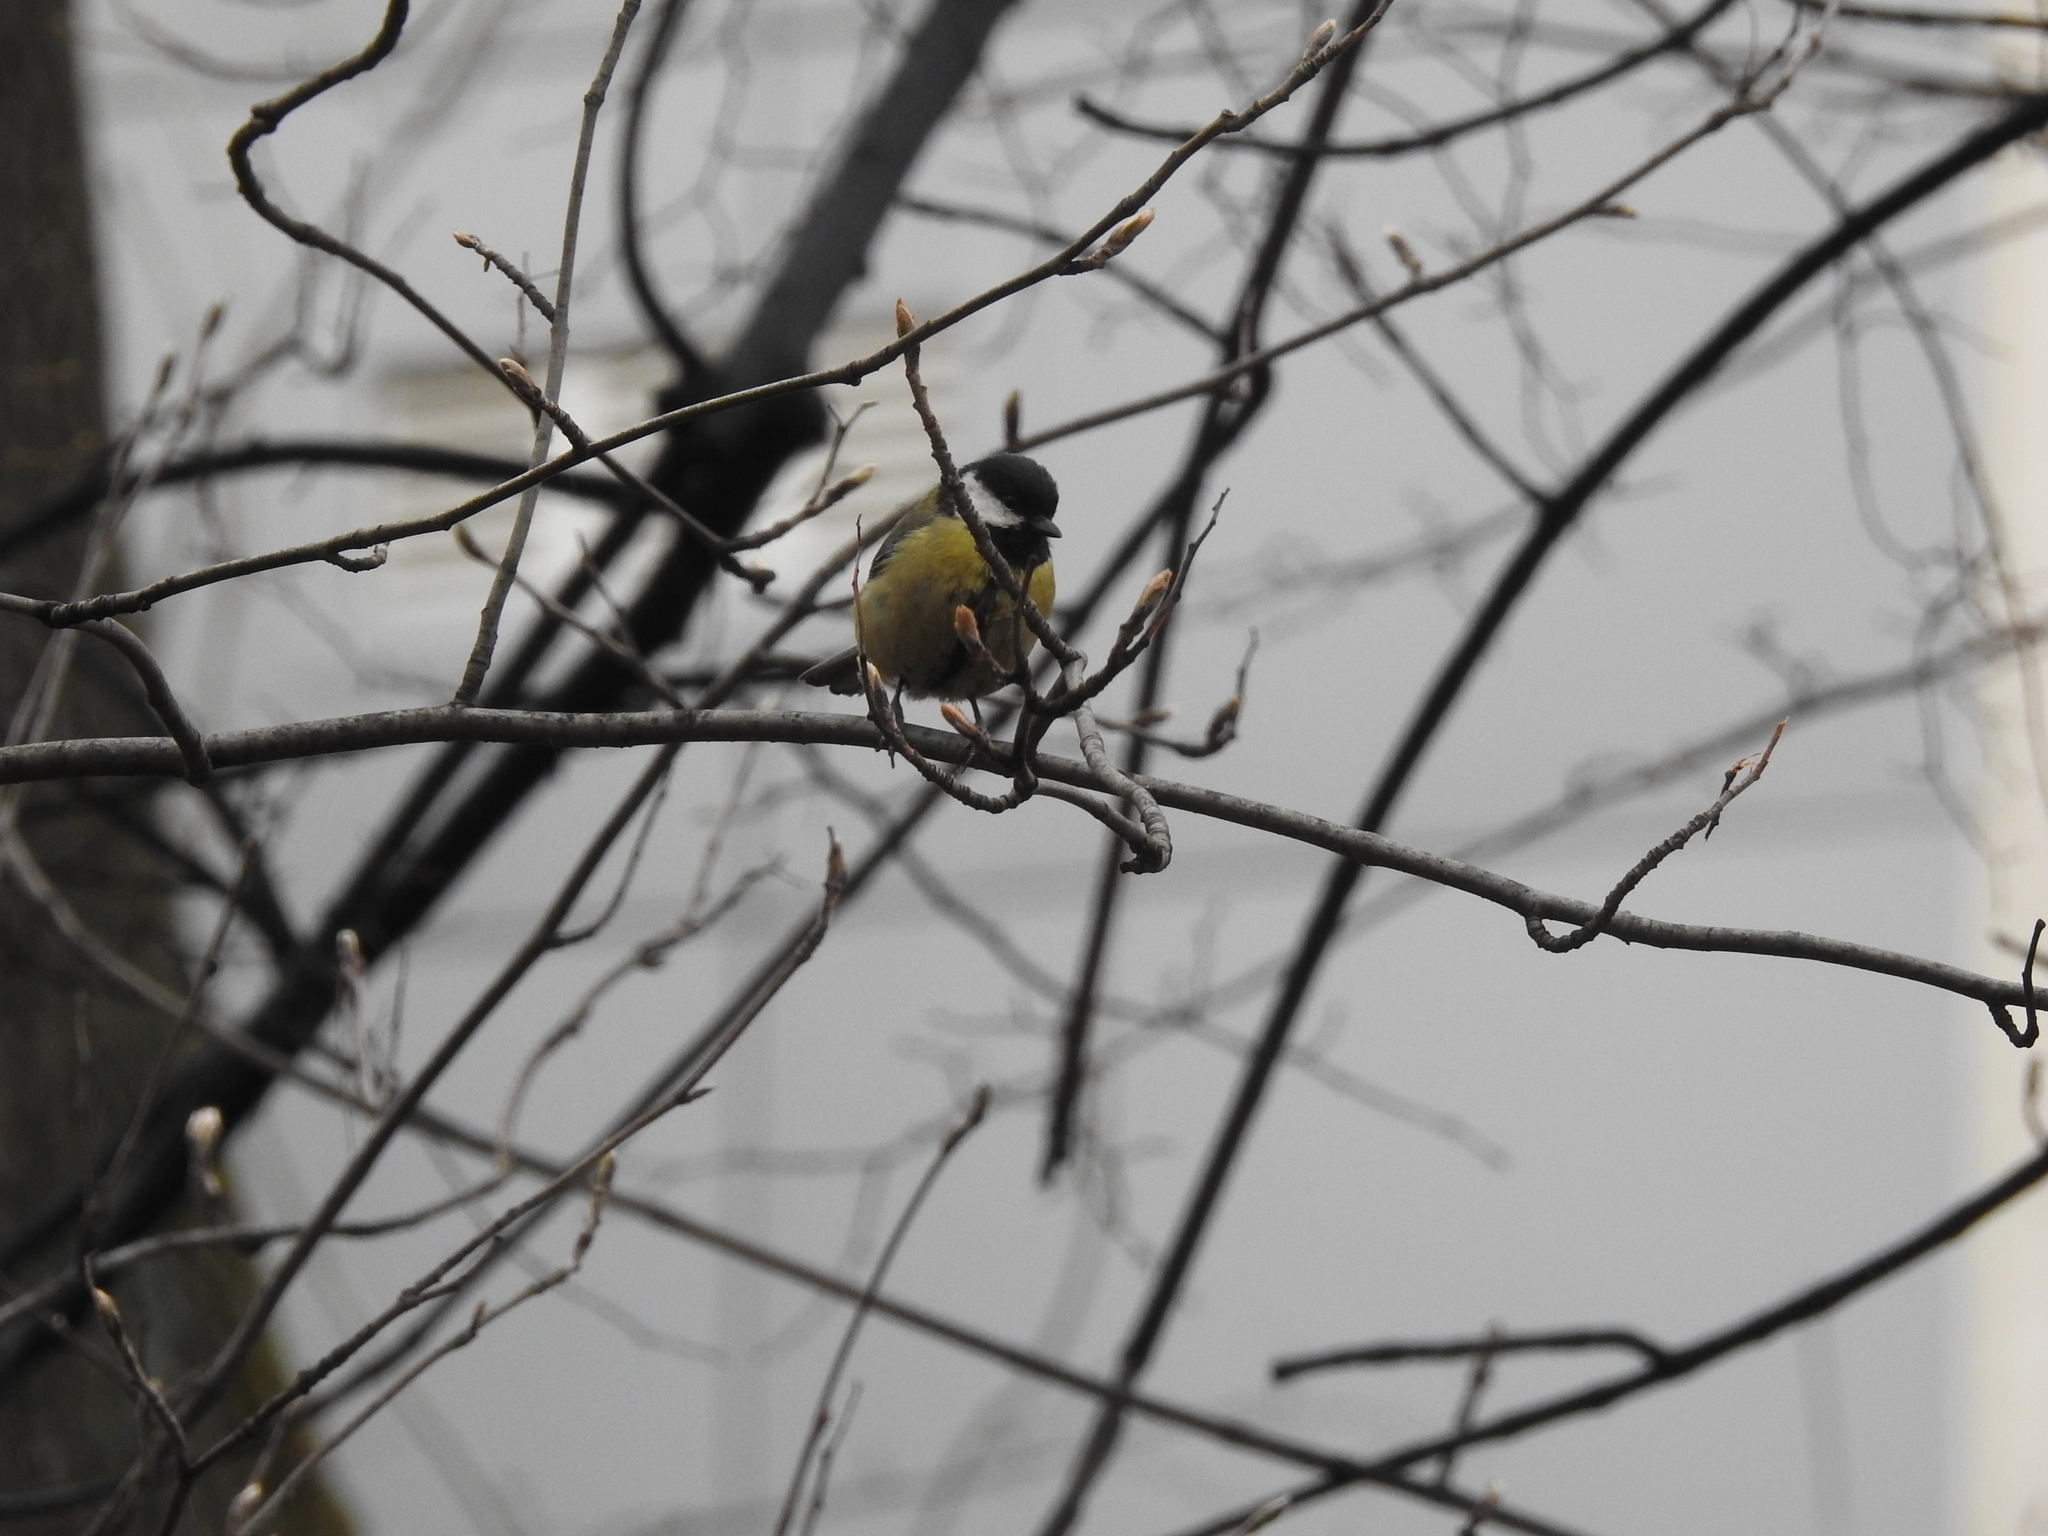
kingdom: Animalia
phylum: Chordata
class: Aves
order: Passeriformes
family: Paridae
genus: Parus
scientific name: Parus major
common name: Great tit
